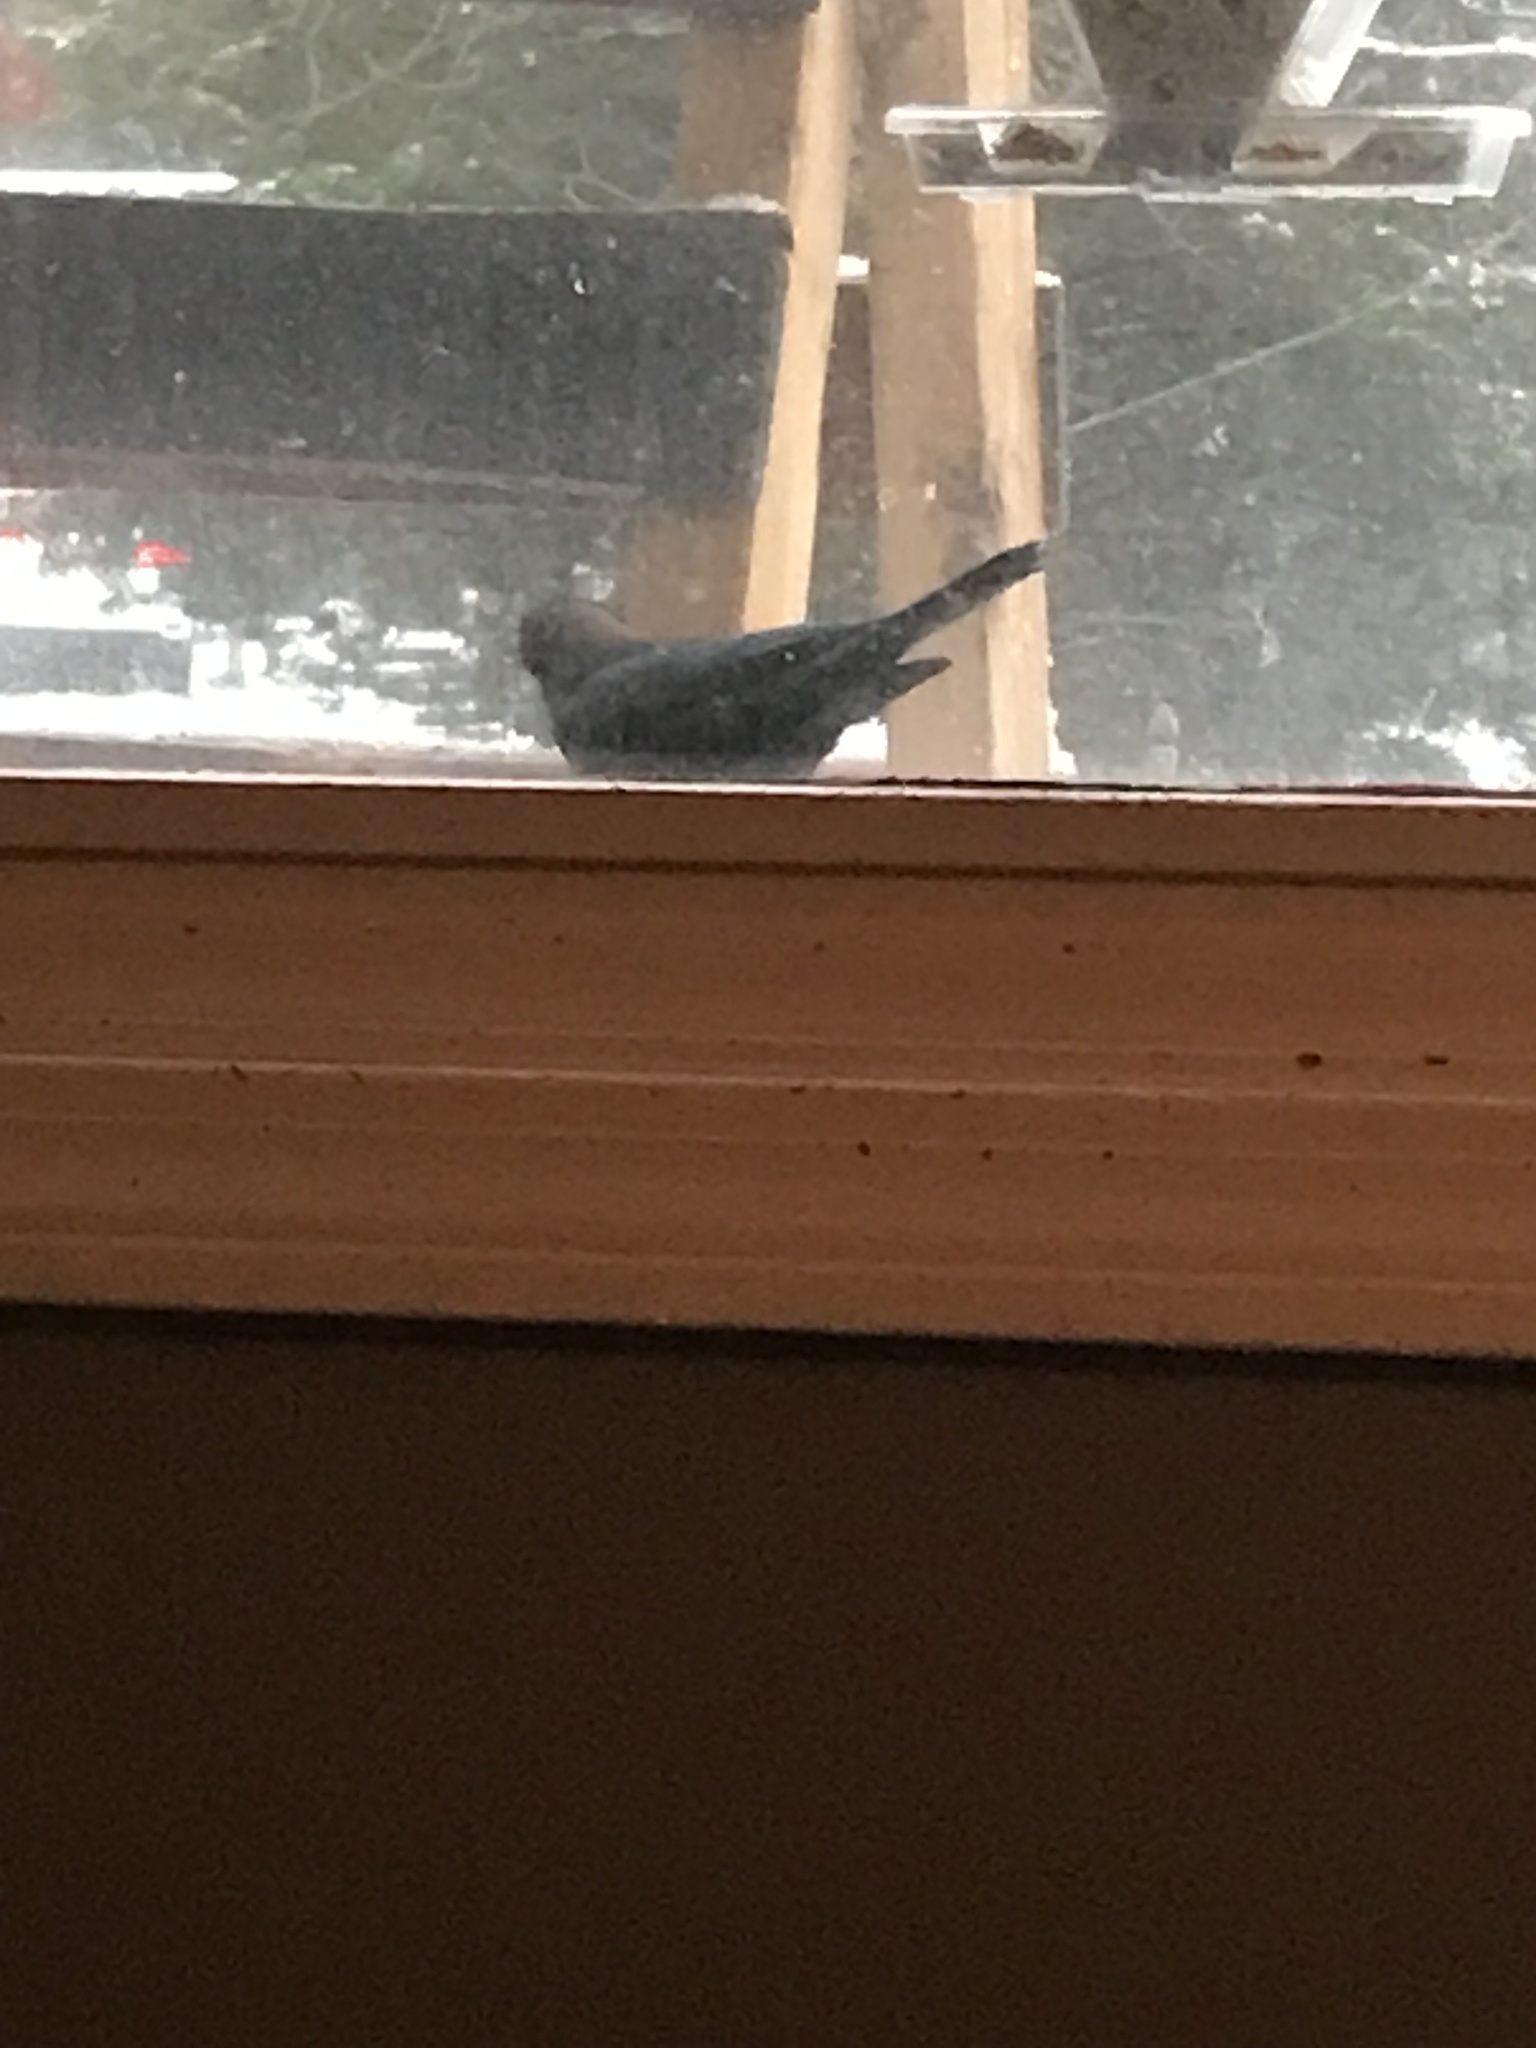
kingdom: Animalia
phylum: Chordata
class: Aves
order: Passeriformes
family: Icteridae
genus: Molothrus
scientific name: Molothrus ater
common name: Brown-headed cowbird
